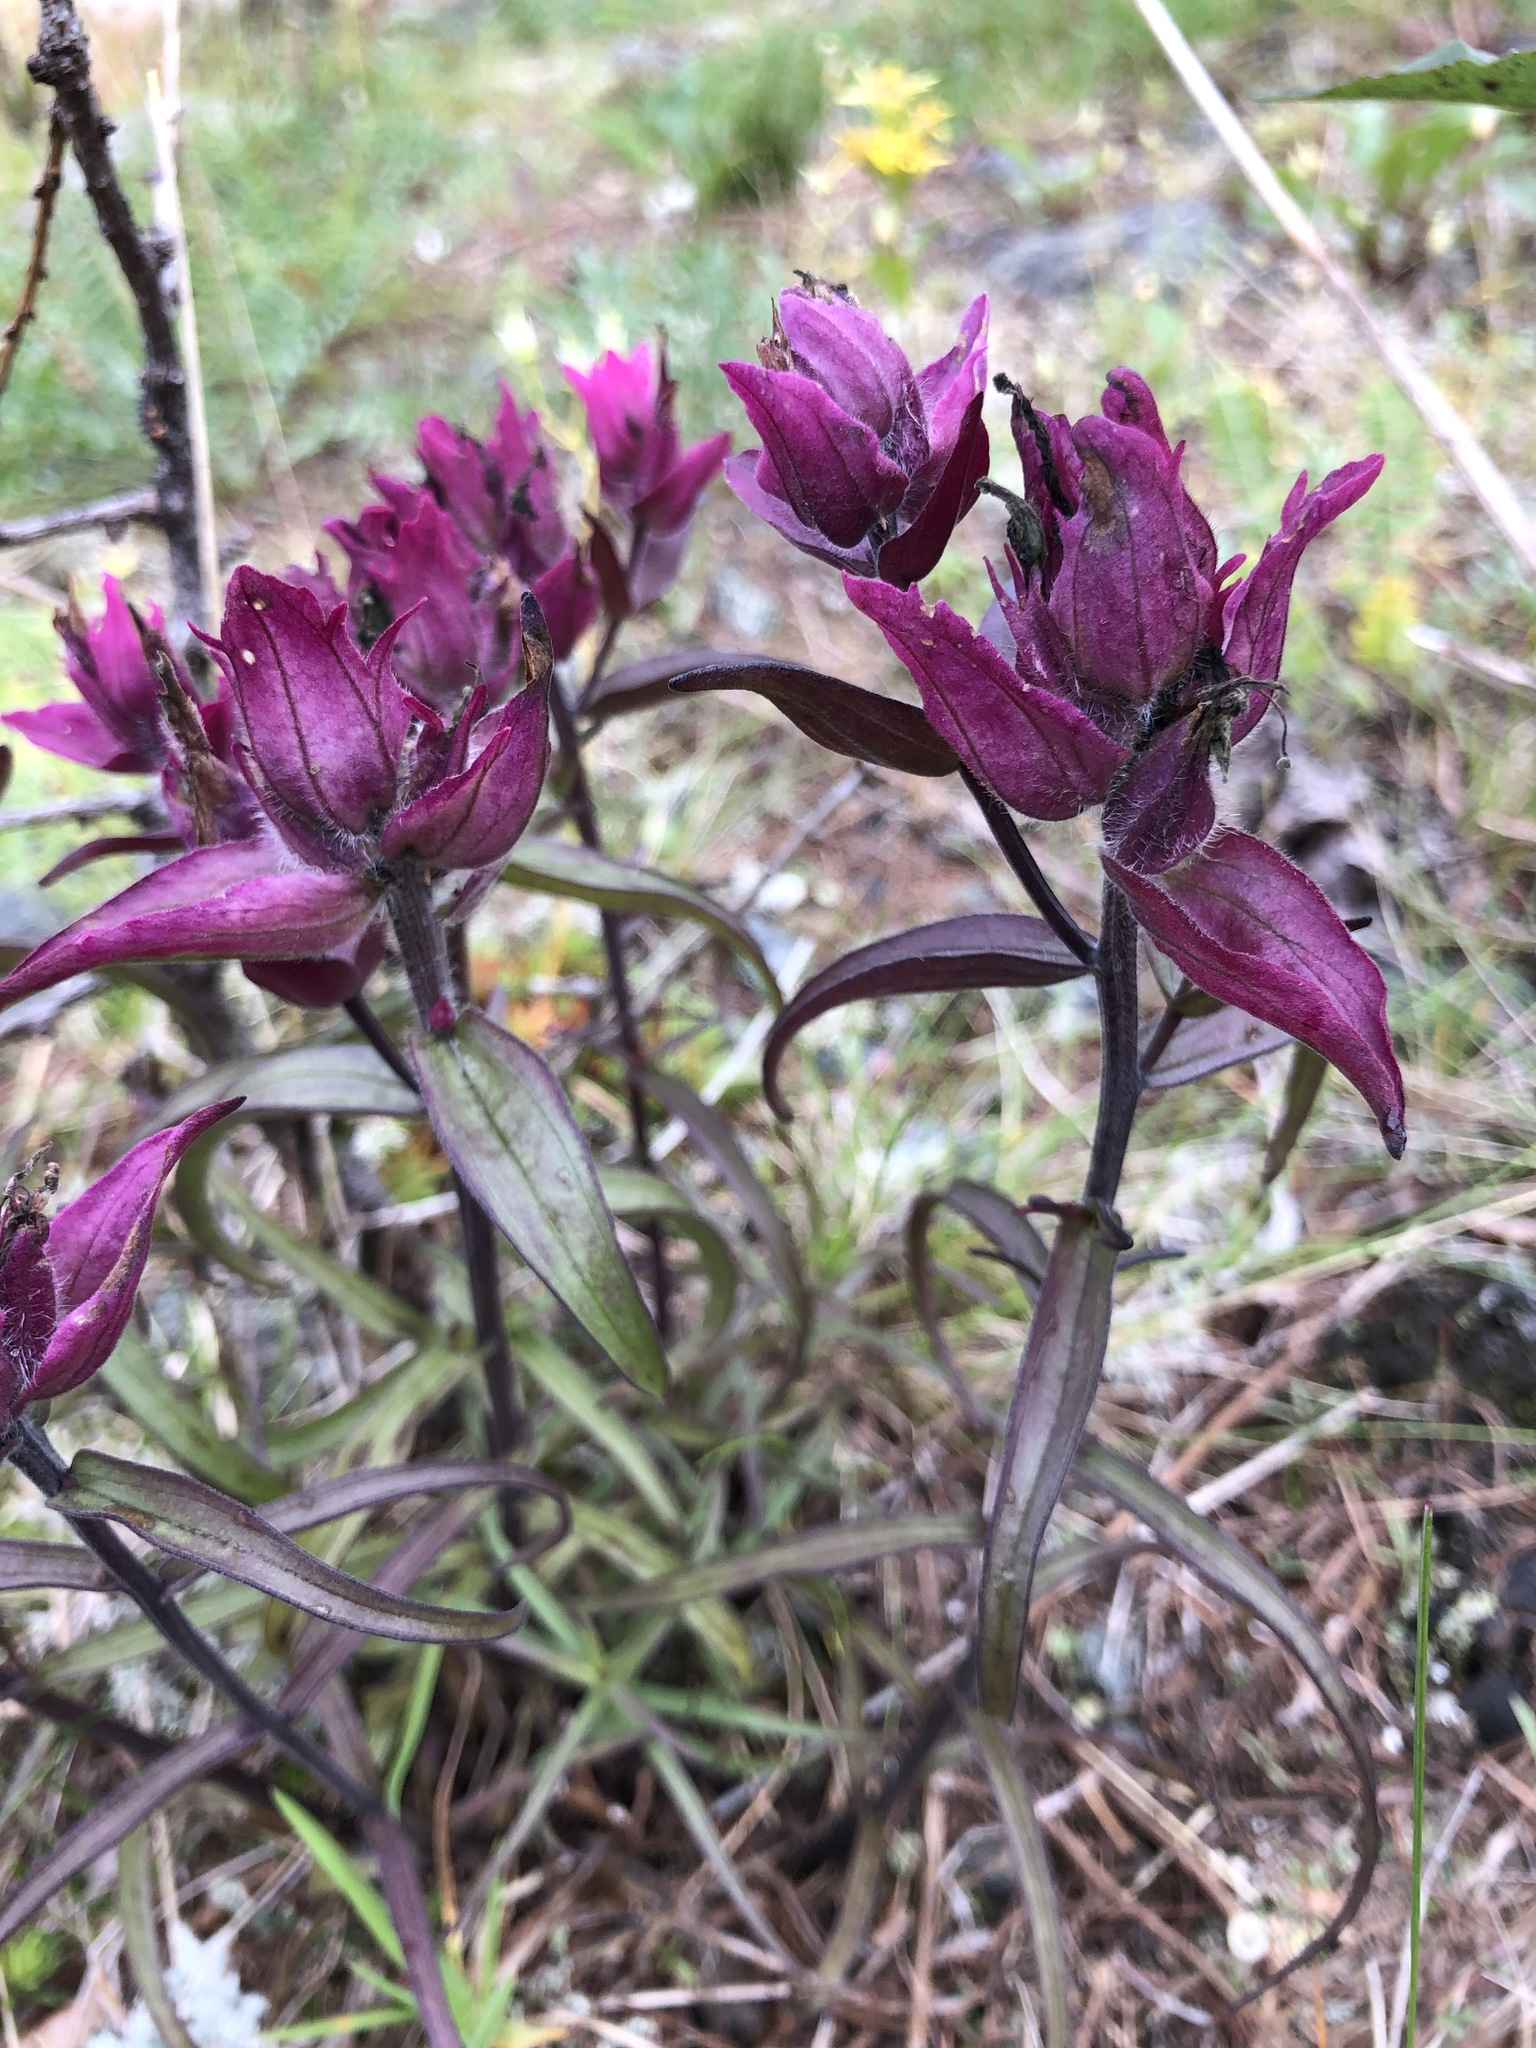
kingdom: Plantae
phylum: Tracheophyta
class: Magnoliopsida
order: Lamiales
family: Orobanchaceae
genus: Castilleja
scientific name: Castilleja arctica
